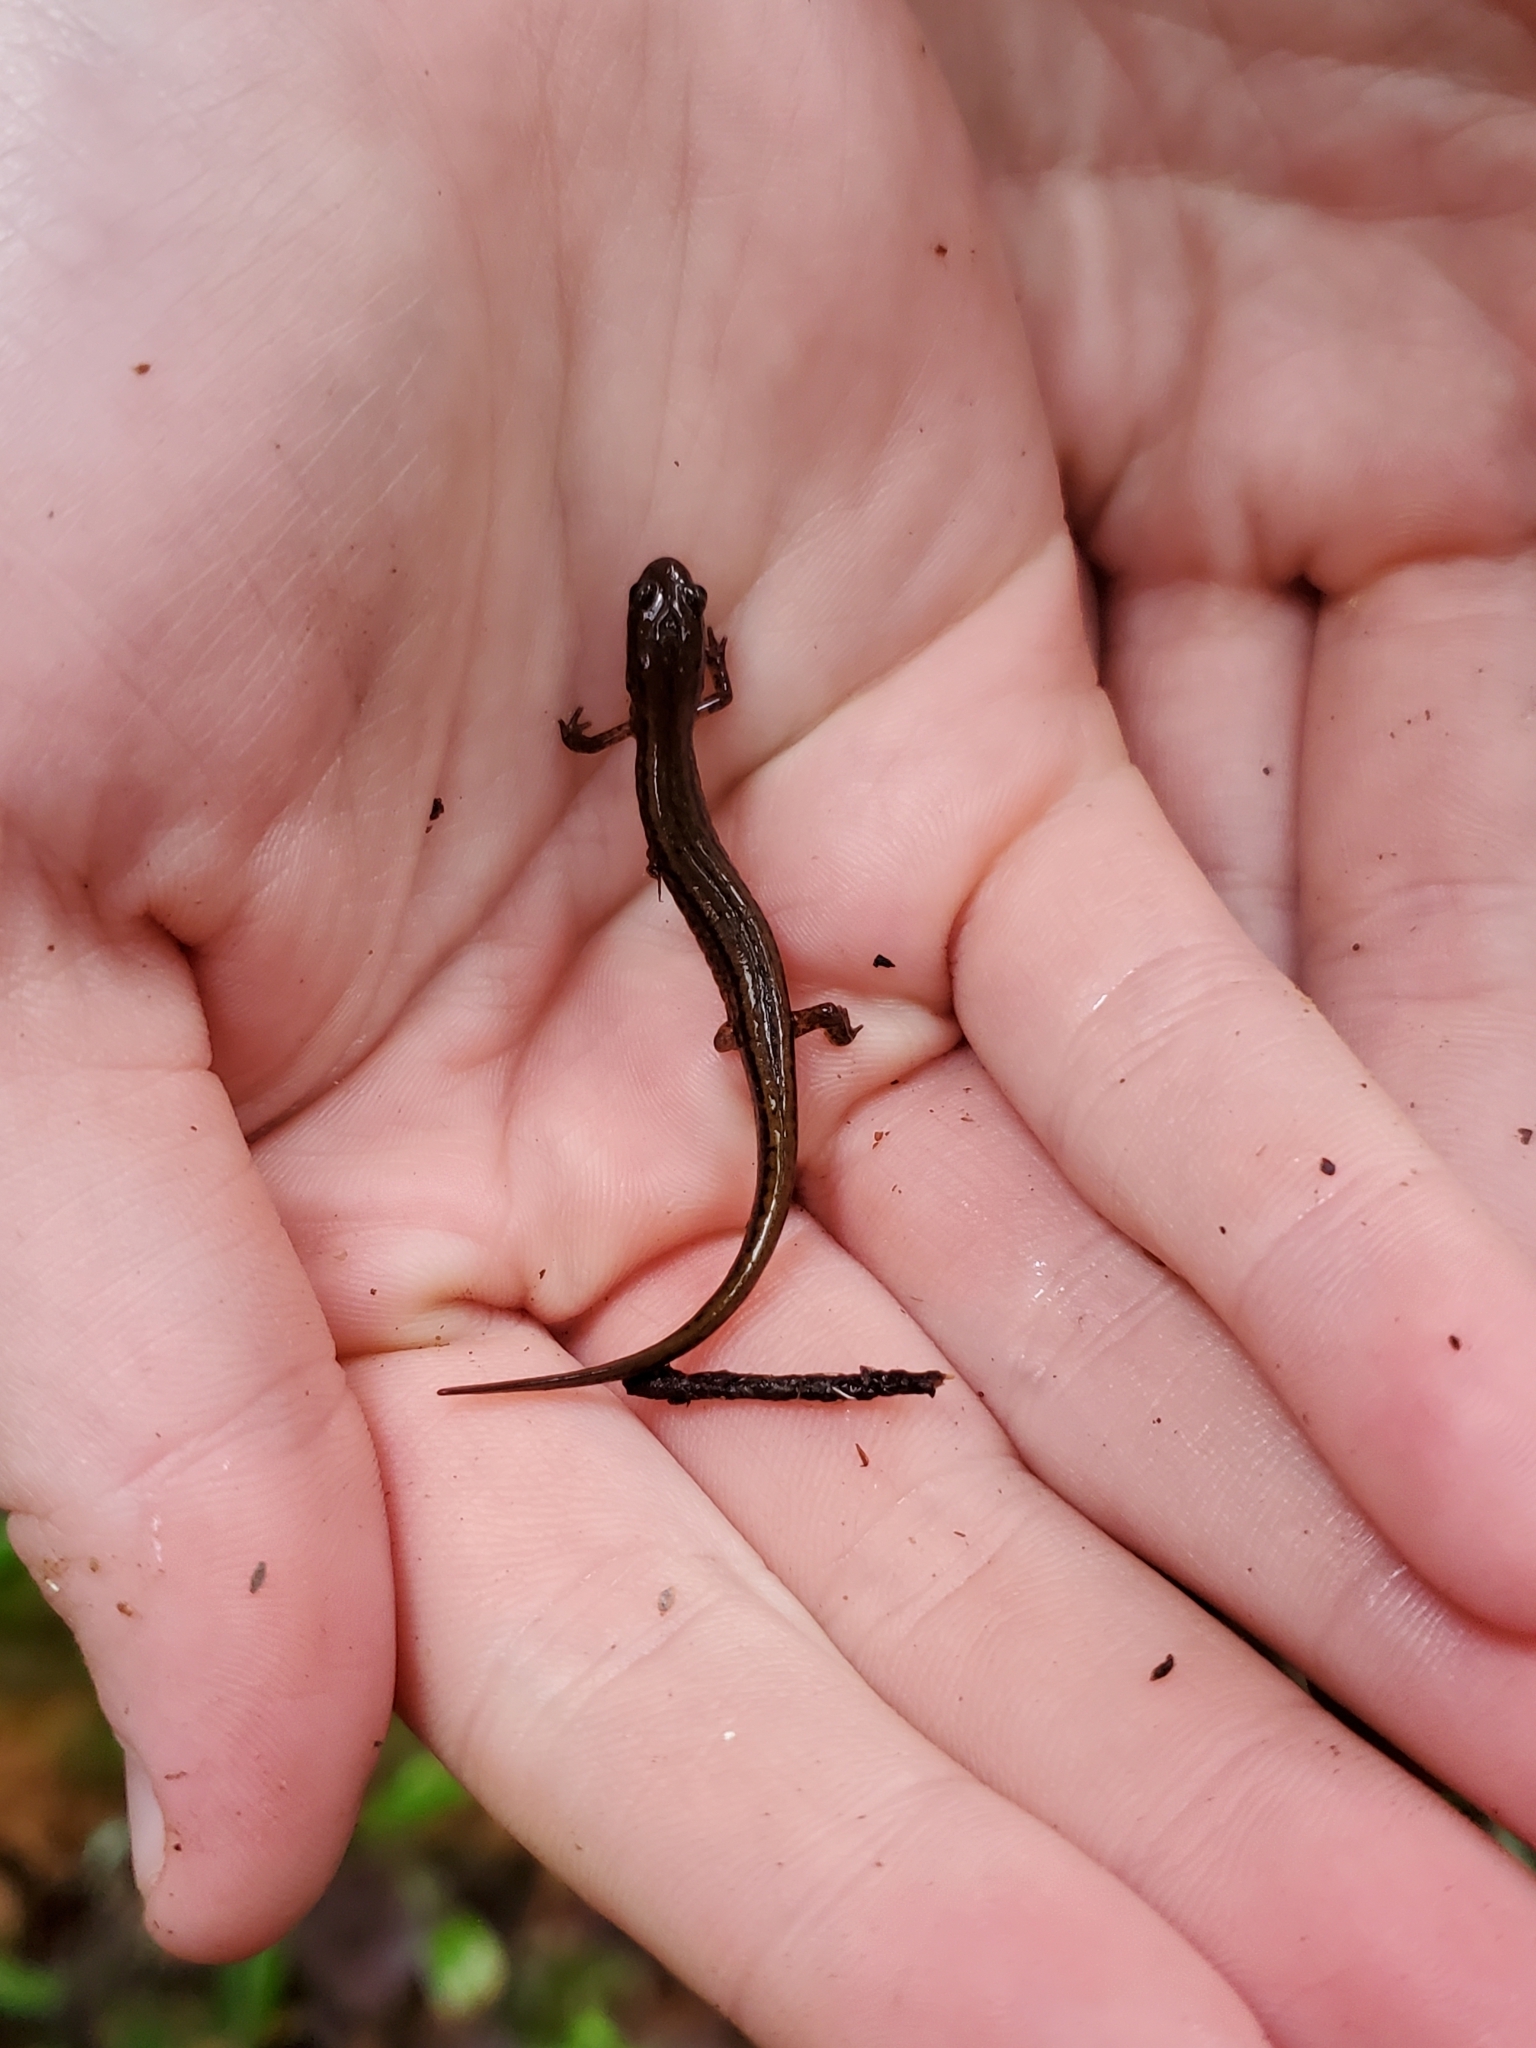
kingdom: Animalia
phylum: Chordata
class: Amphibia
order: Caudata
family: Plethodontidae
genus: Eurycea
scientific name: Eurycea bislineata
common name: Northern two-lined salamander
